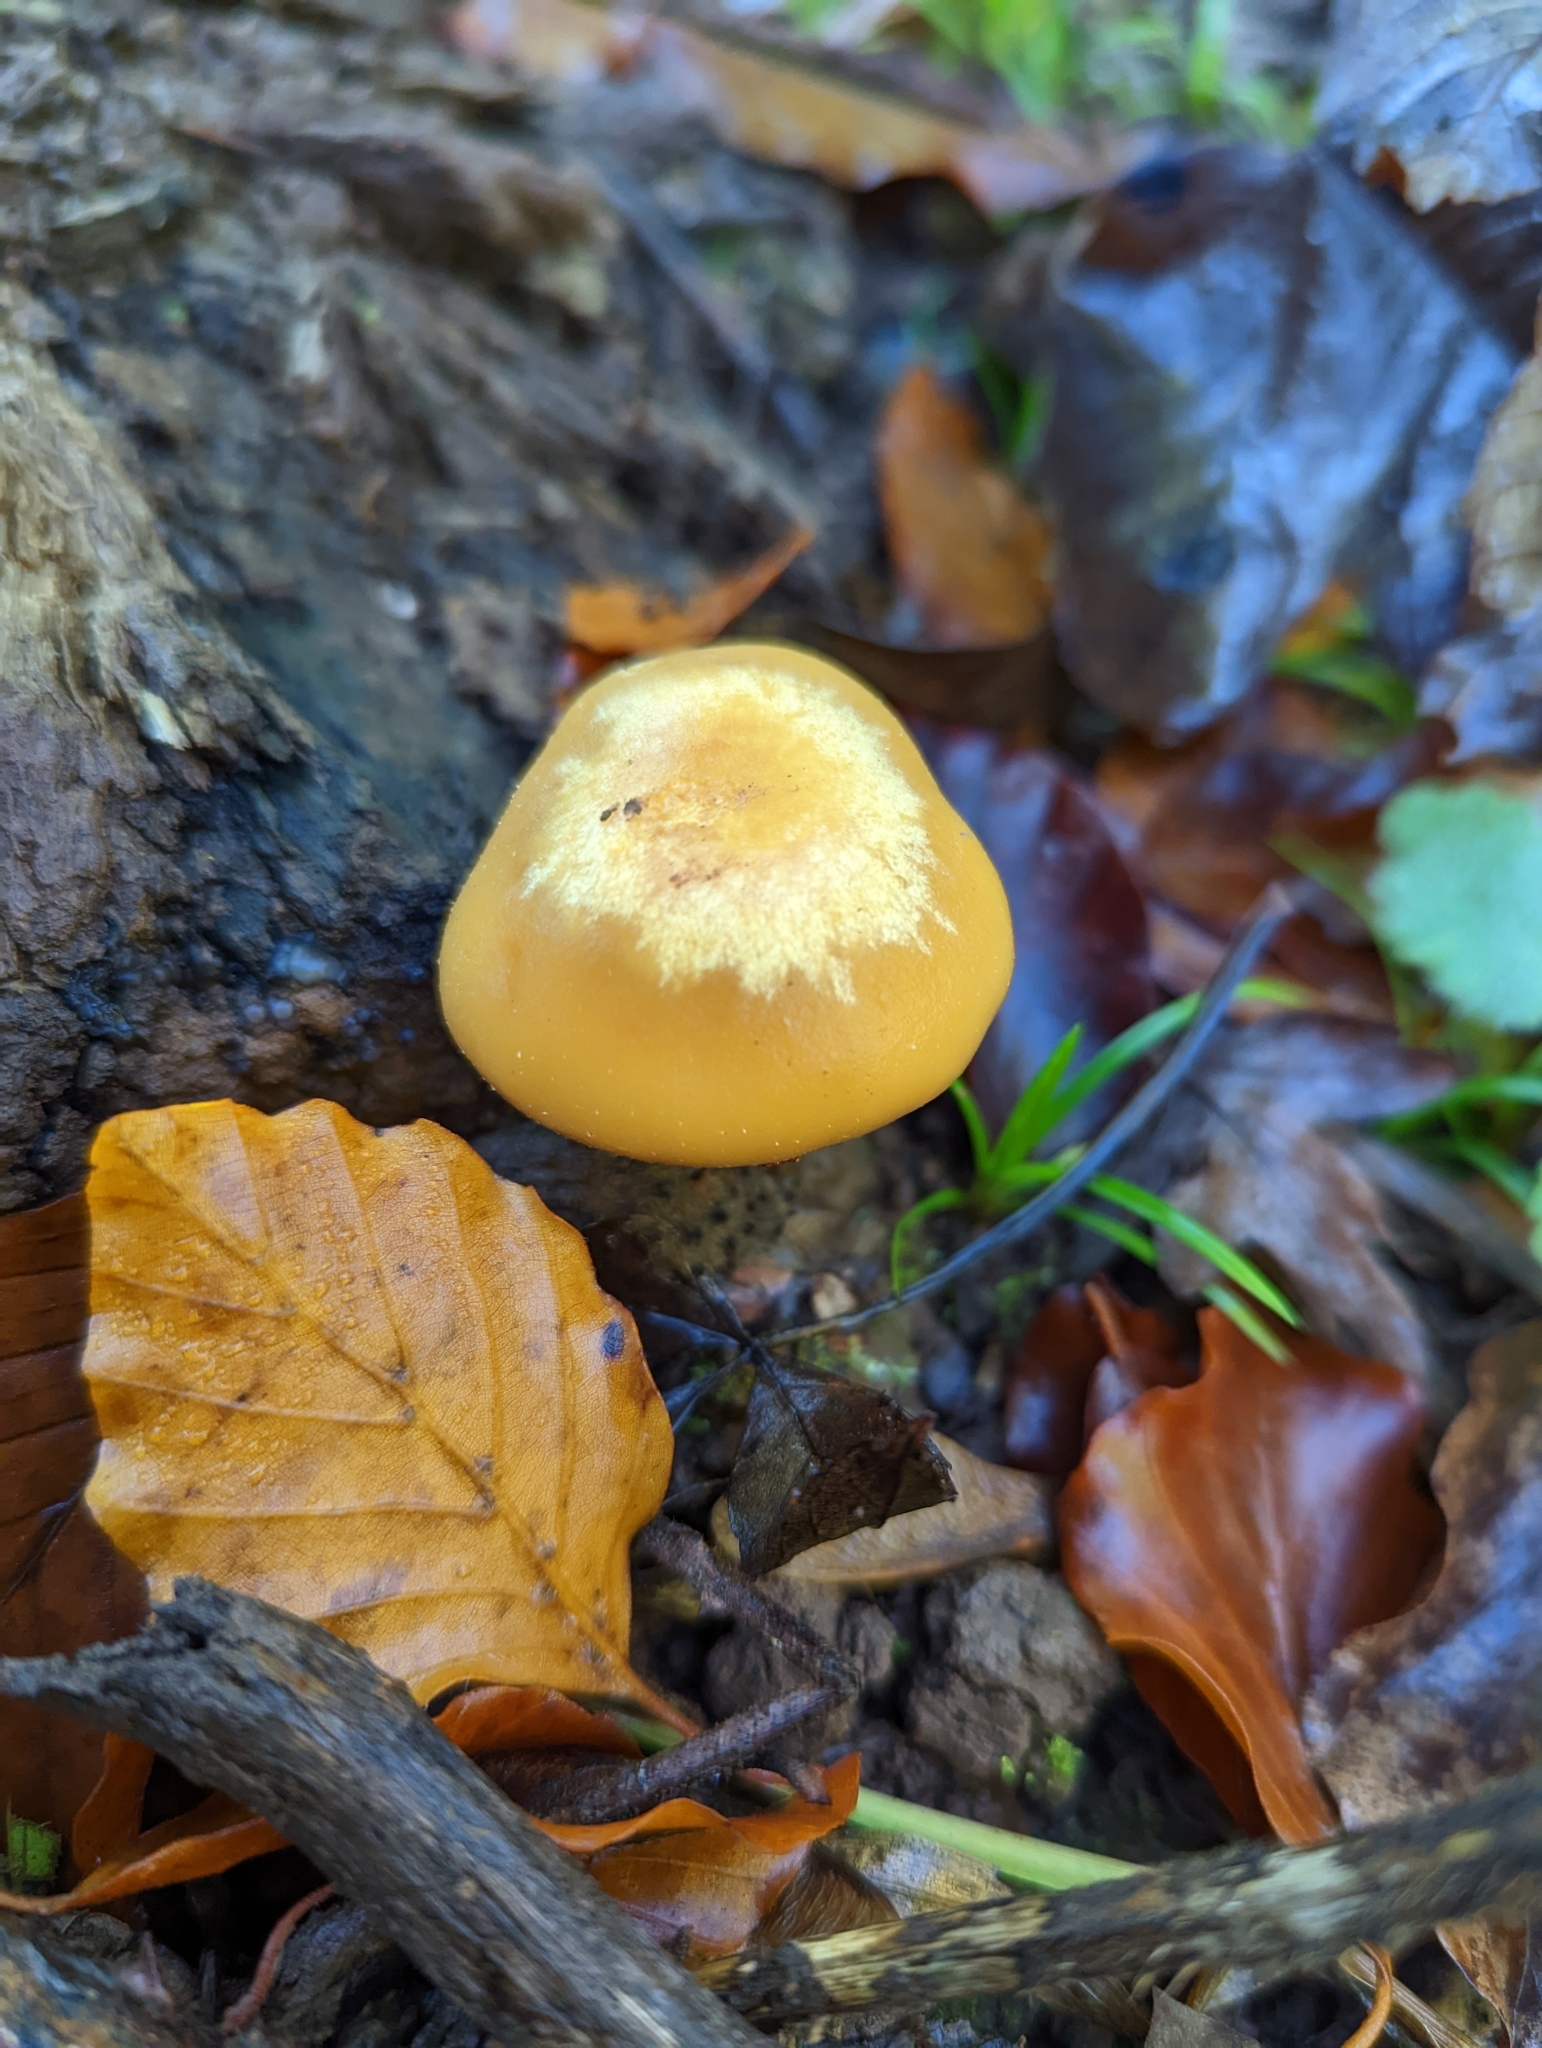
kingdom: Fungi
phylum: Basidiomycota
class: Agaricomycetes
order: Agaricales
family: Strophariaceae
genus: Kuehneromyces
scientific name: Kuehneromyces mutabilis
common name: Sheathed woodtuft
